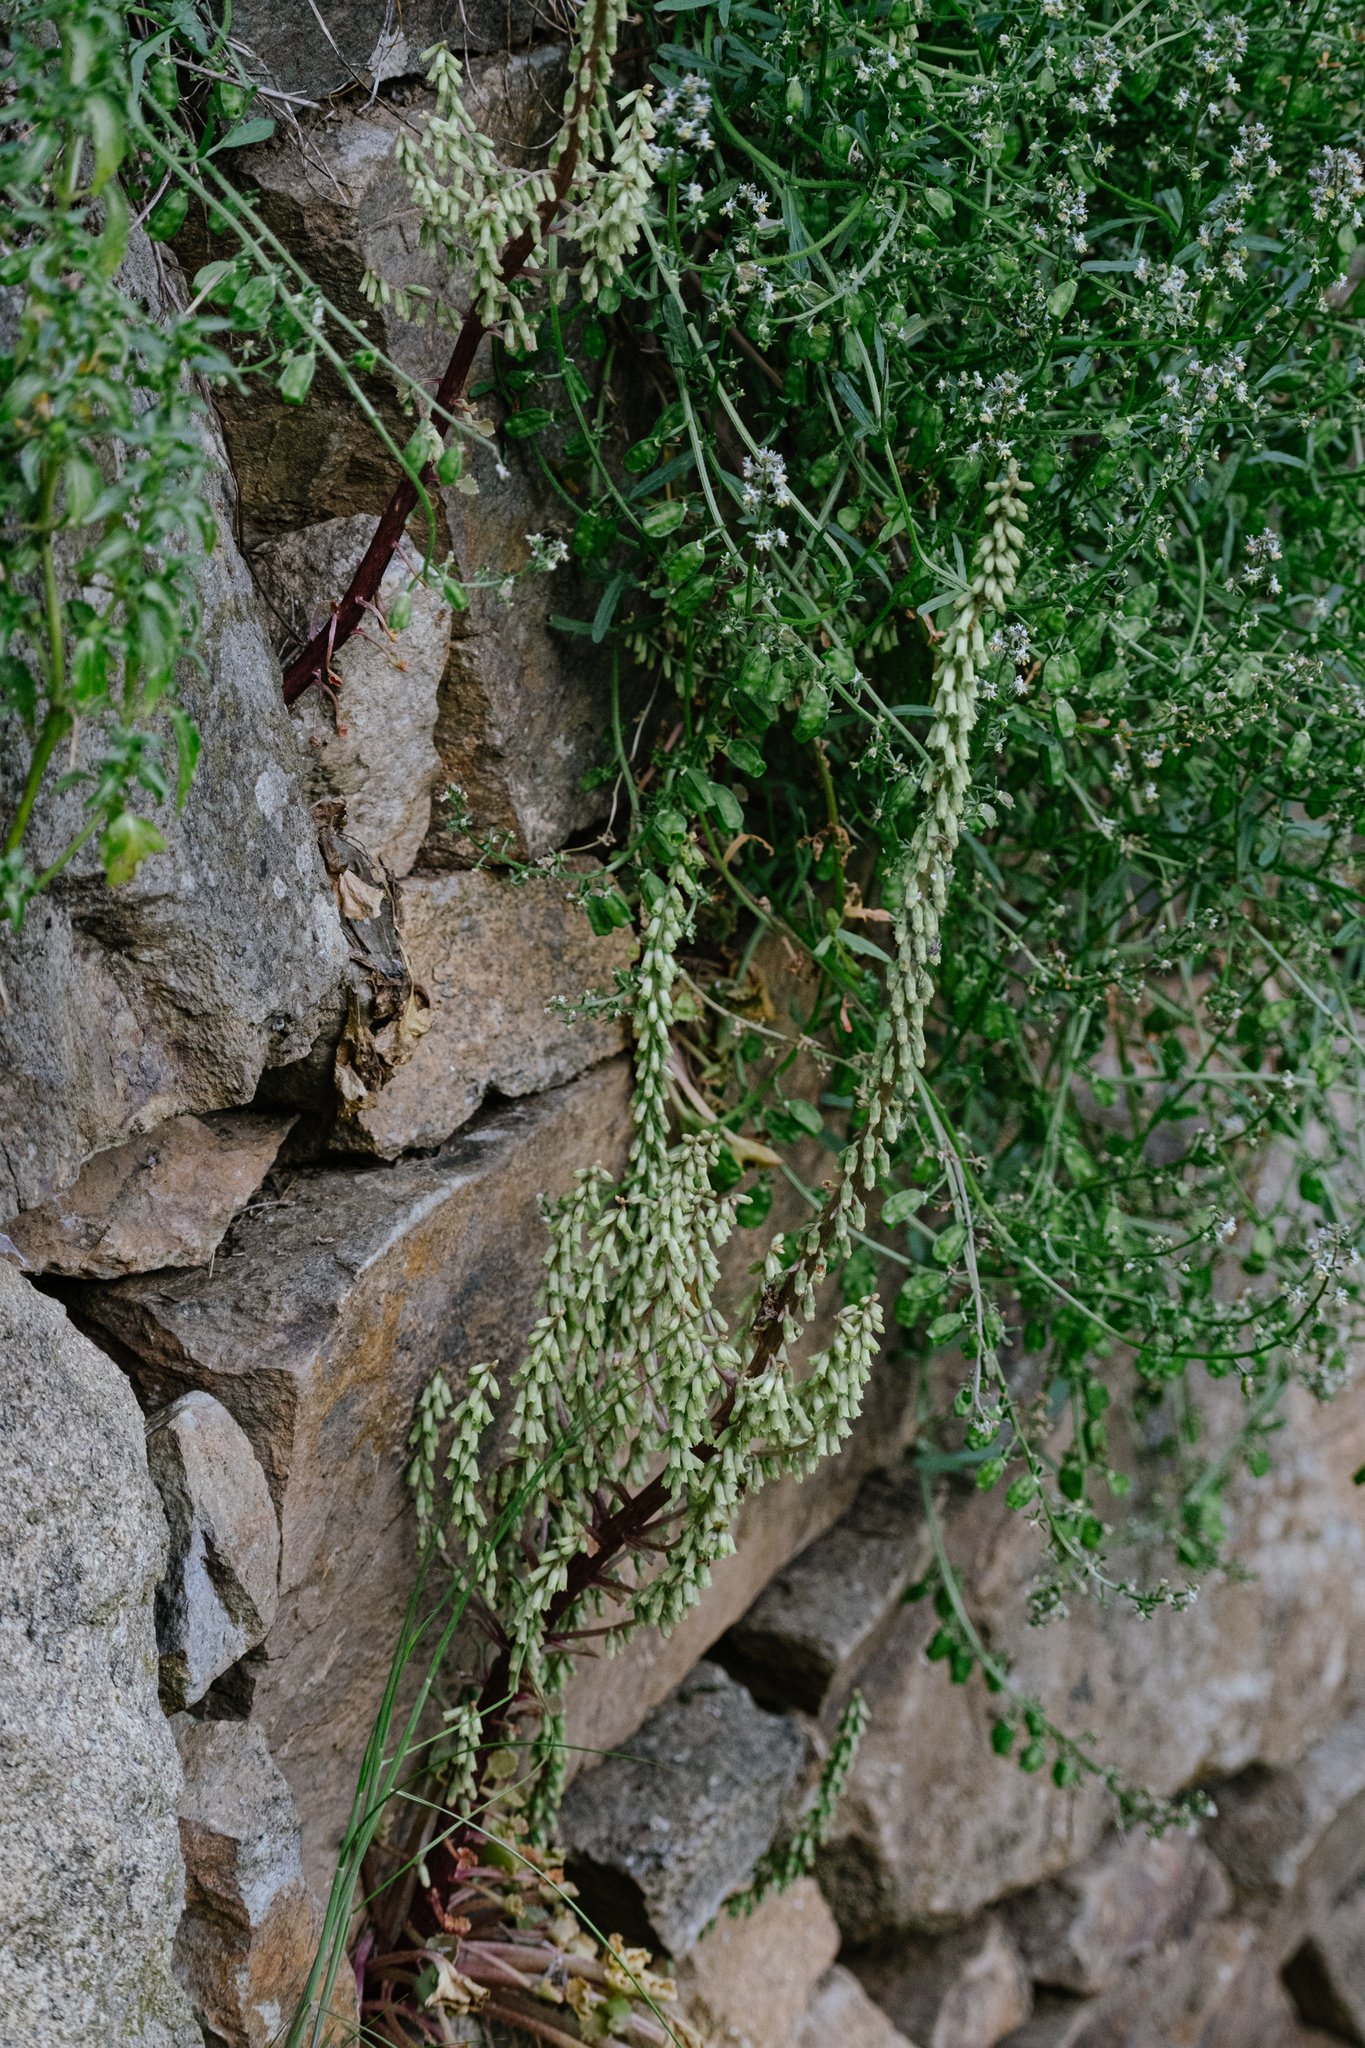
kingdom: Plantae
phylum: Tracheophyta
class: Magnoliopsida
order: Saxifragales
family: Crassulaceae
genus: Umbilicus
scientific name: Umbilicus rupestris
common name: Navelwort
